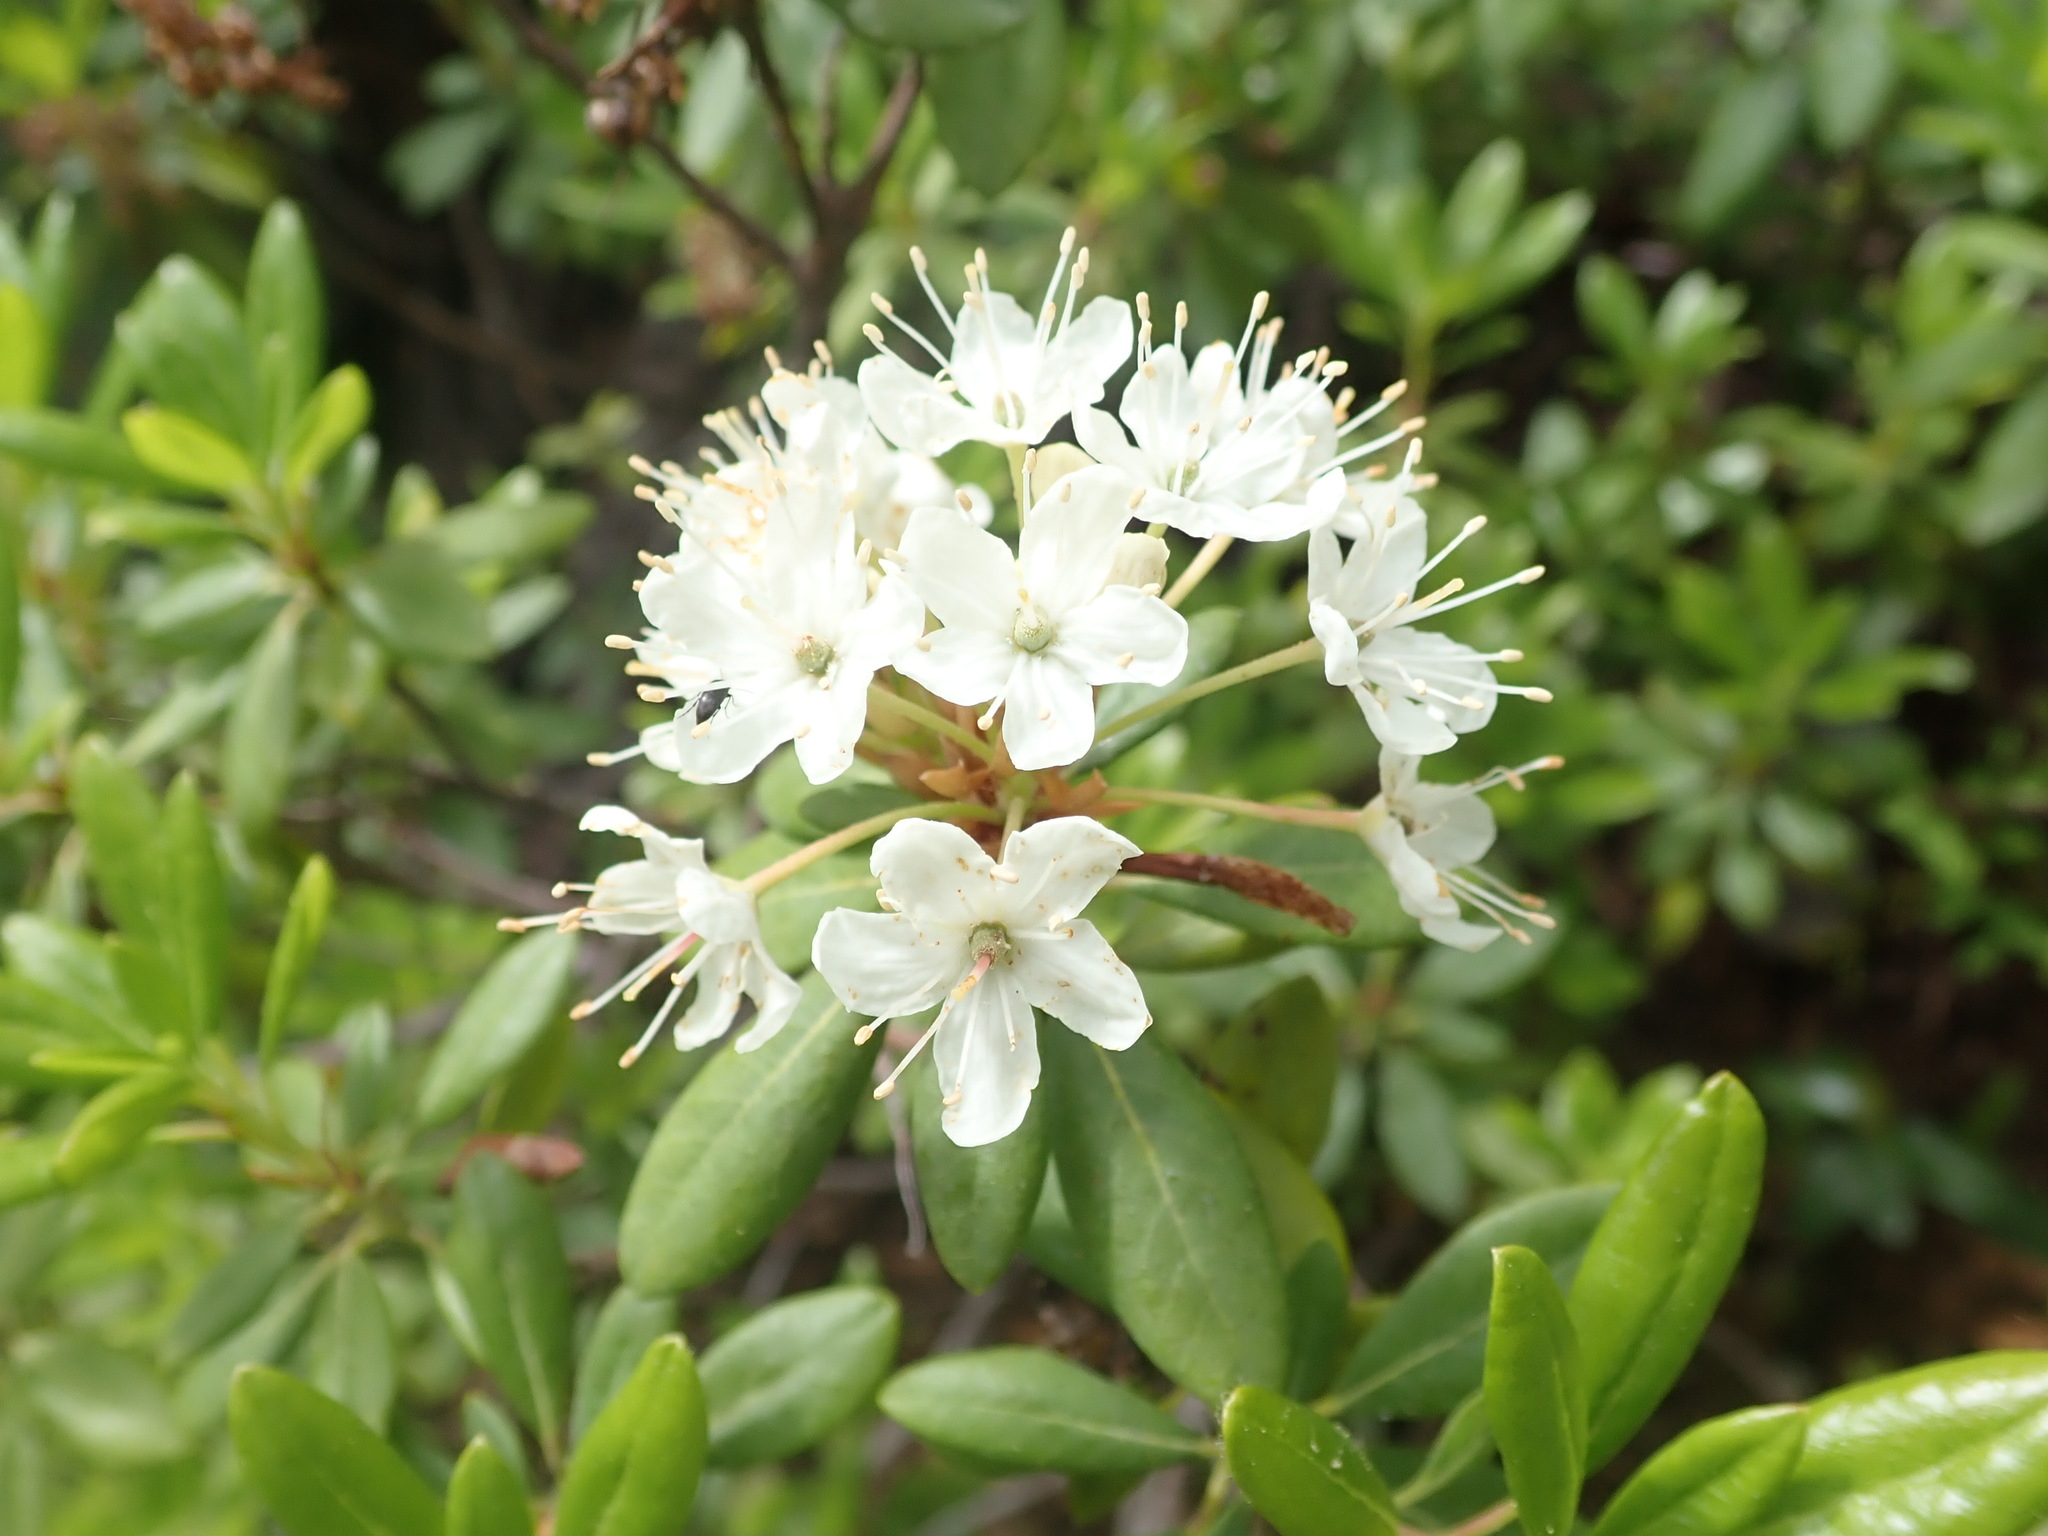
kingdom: Plantae
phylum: Tracheophyta
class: Magnoliopsida
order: Ericales
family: Ericaceae
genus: Rhododendron
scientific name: Rhododendron columbianum
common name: Western labrador tea
